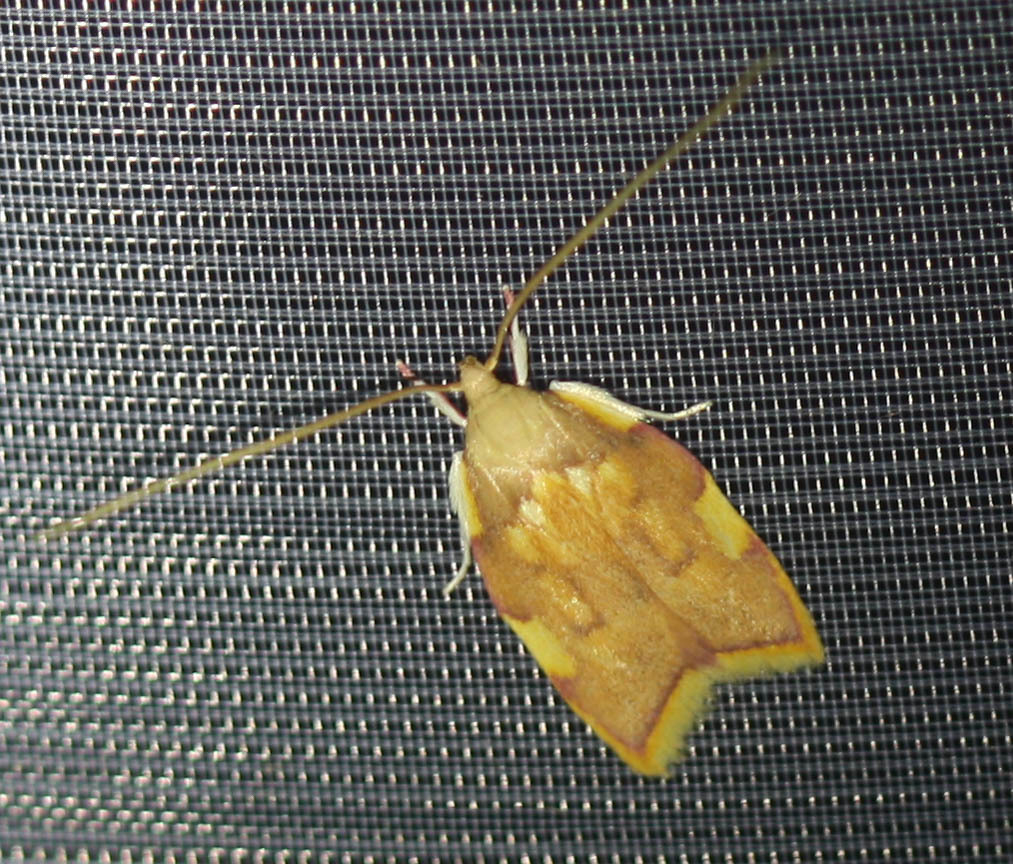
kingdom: Animalia
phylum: Arthropoda
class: Insecta
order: Lepidoptera
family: Peleopodidae
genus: Carcina
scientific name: Carcina quercana
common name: Moth
